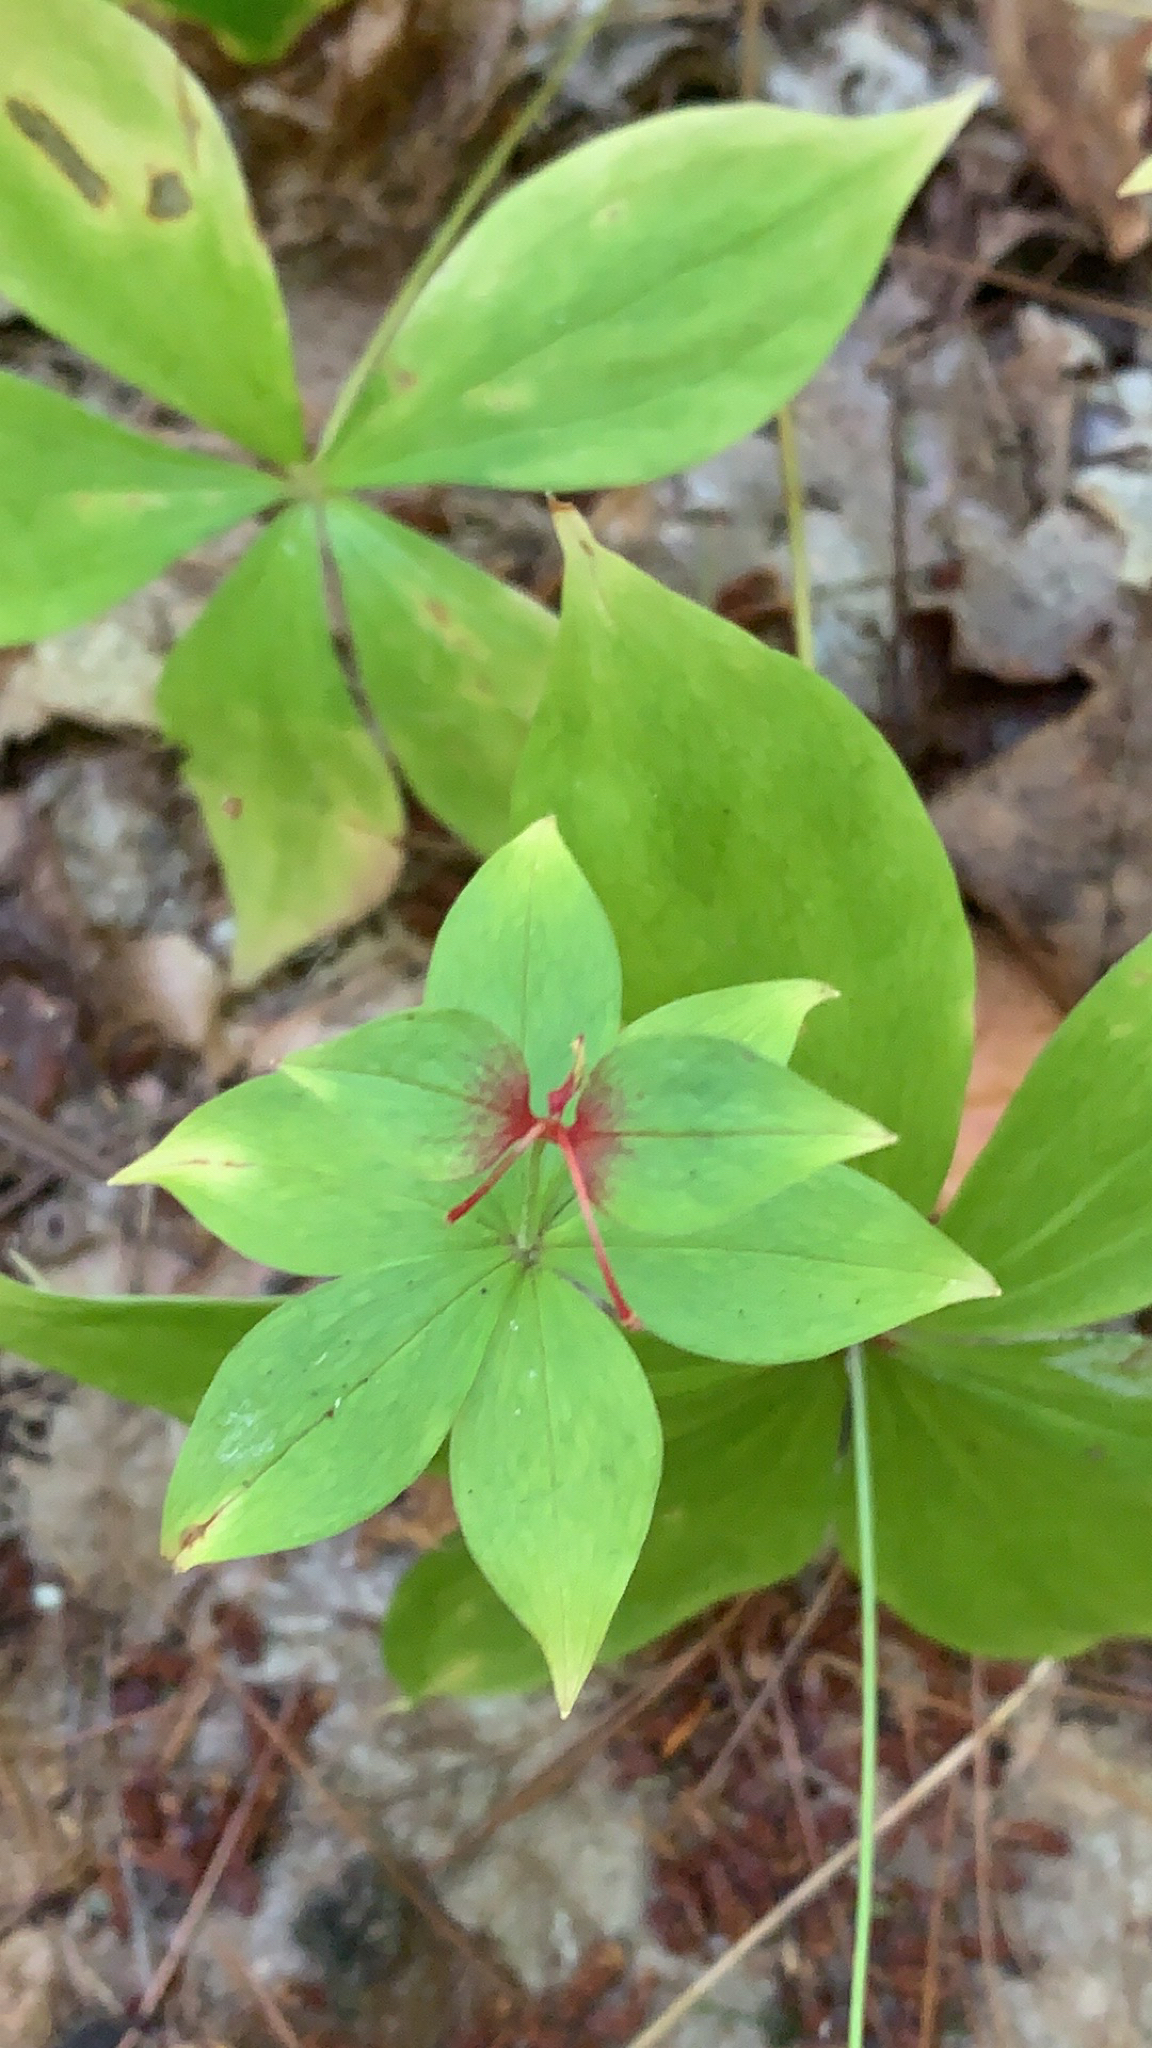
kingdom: Plantae
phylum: Tracheophyta
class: Liliopsida
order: Liliales
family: Liliaceae
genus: Medeola
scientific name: Medeola virginiana
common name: Indian cucumber-root
